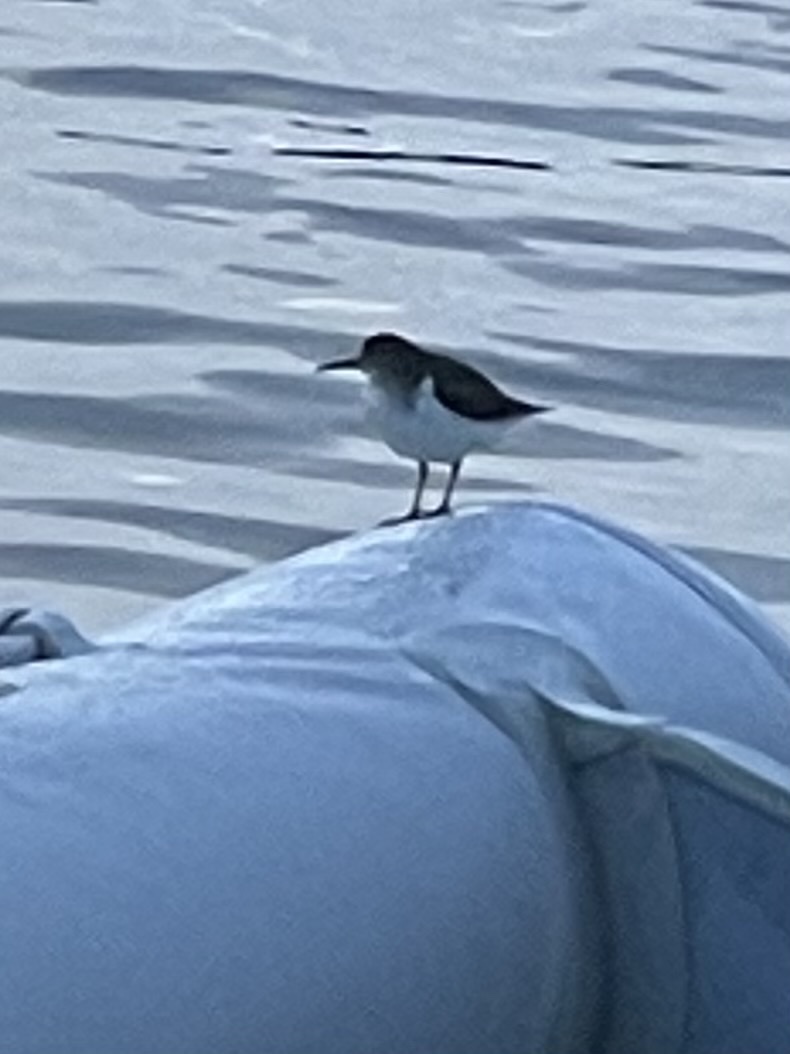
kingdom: Animalia
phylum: Chordata
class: Aves
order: Charadriiformes
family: Scolopacidae
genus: Actitis
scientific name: Actitis macularius
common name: Spotted sandpiper
